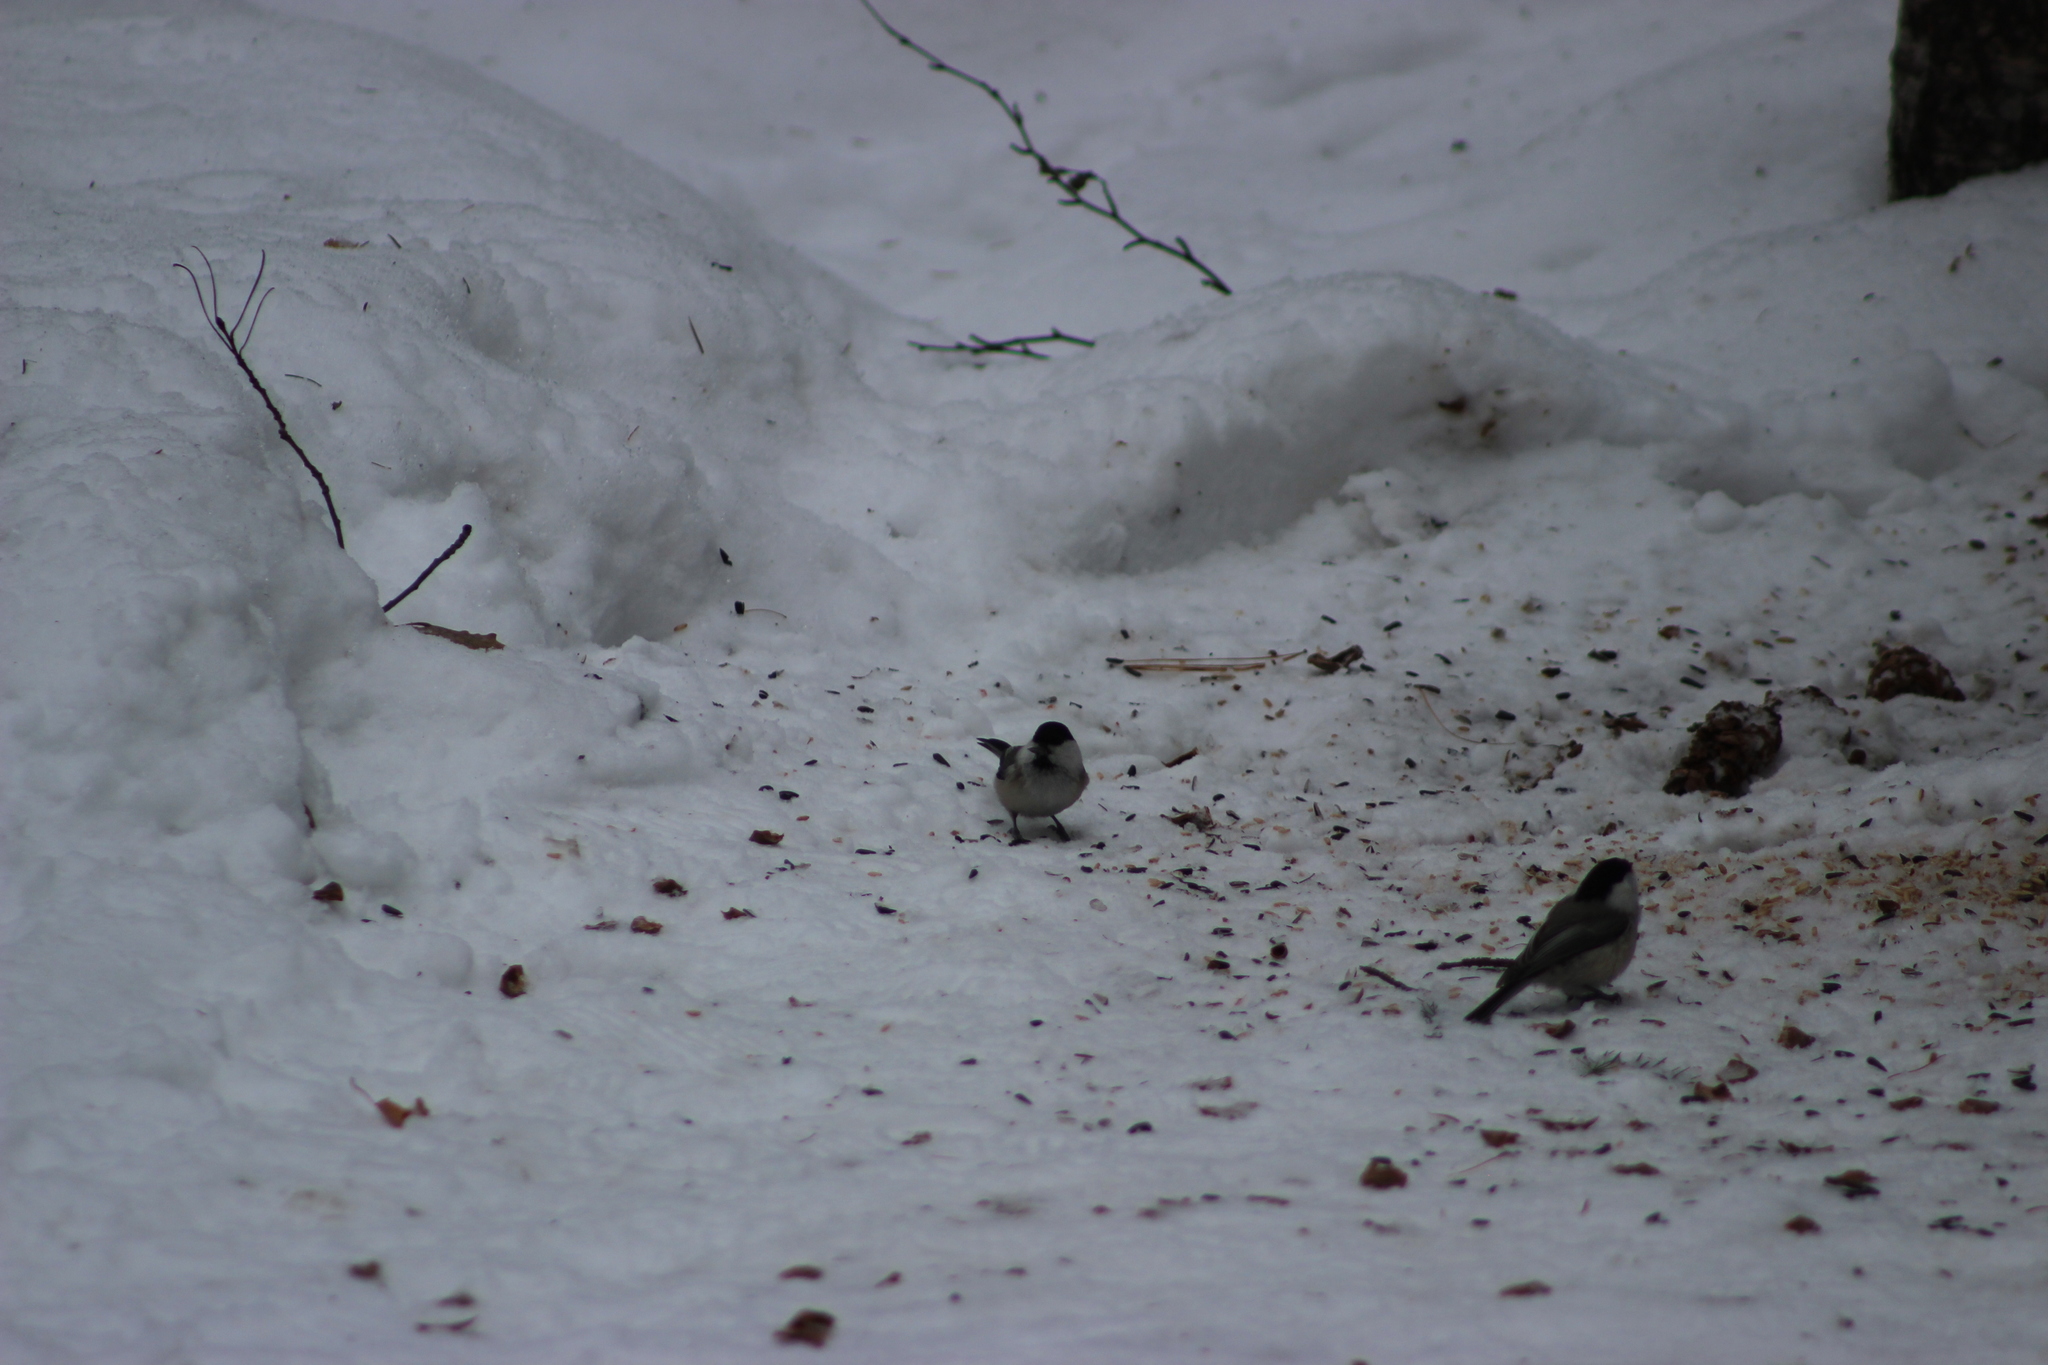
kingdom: Animalia
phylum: Chordata
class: Aves
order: Passeriformes
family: Paridae
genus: Poecile
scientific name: Poecile montanus
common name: Willow tit
